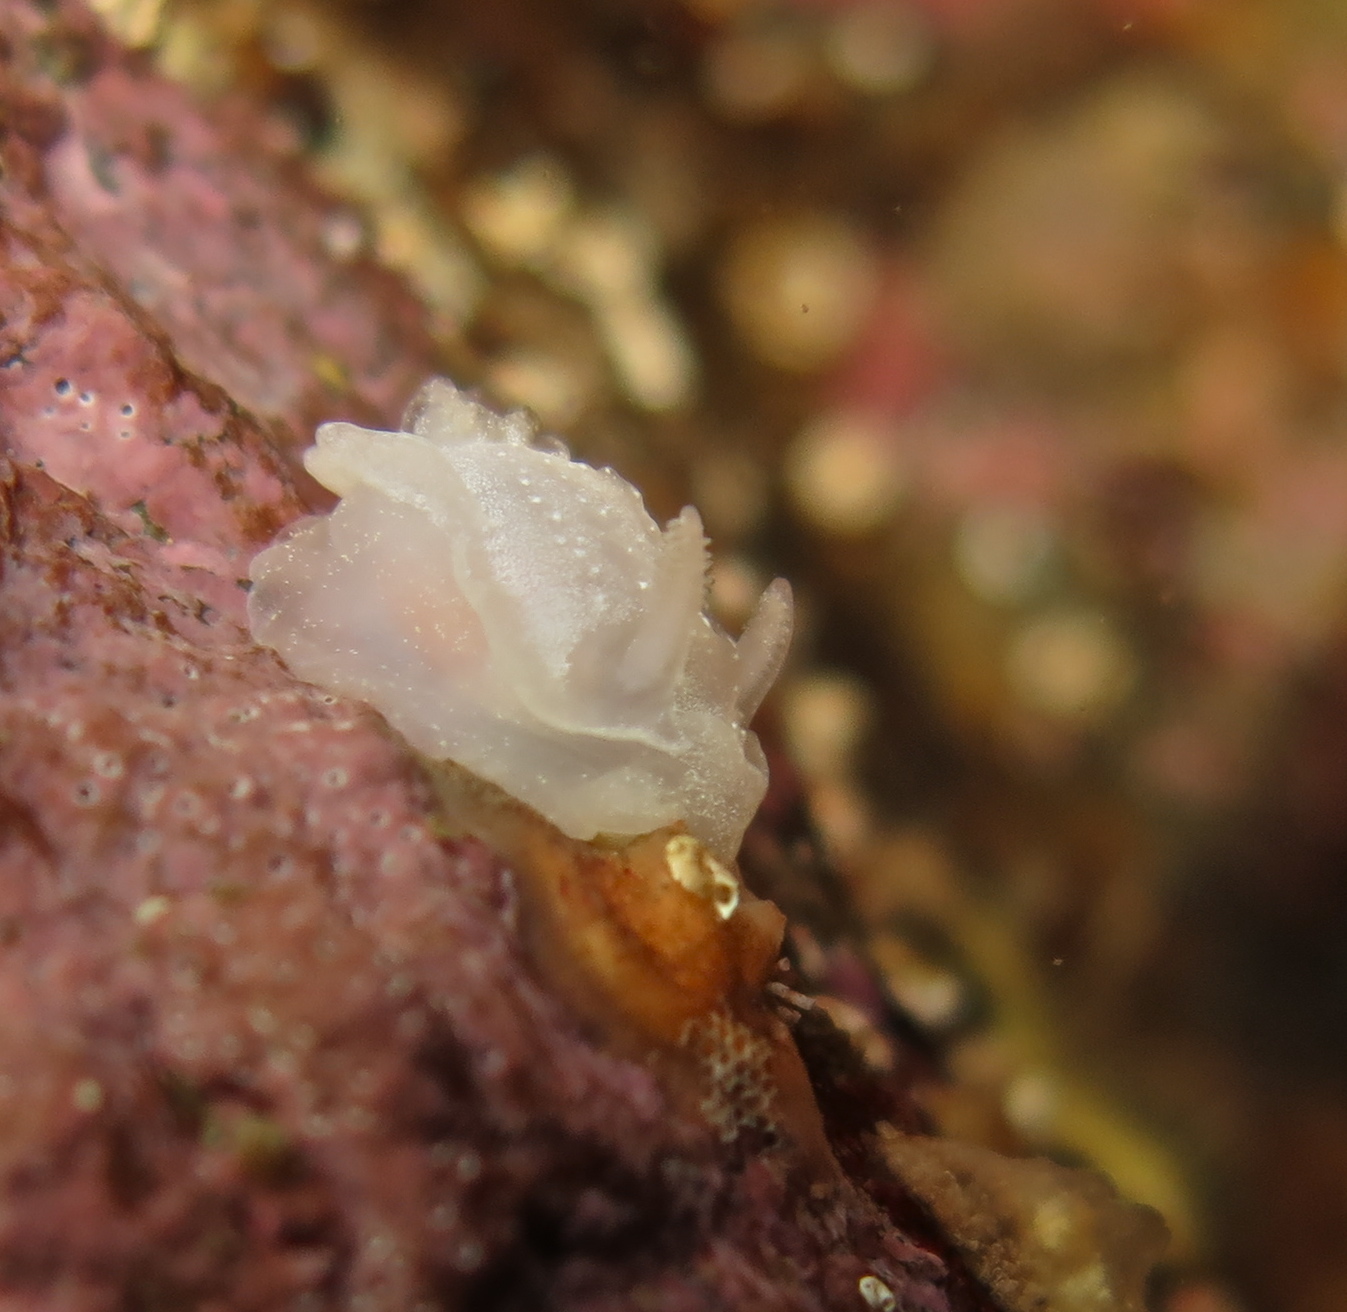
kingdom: Animalia
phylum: Mollusca
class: Gastropoda
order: Nudibranchia
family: Goniodorididae
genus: Okenia
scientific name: Okenia
